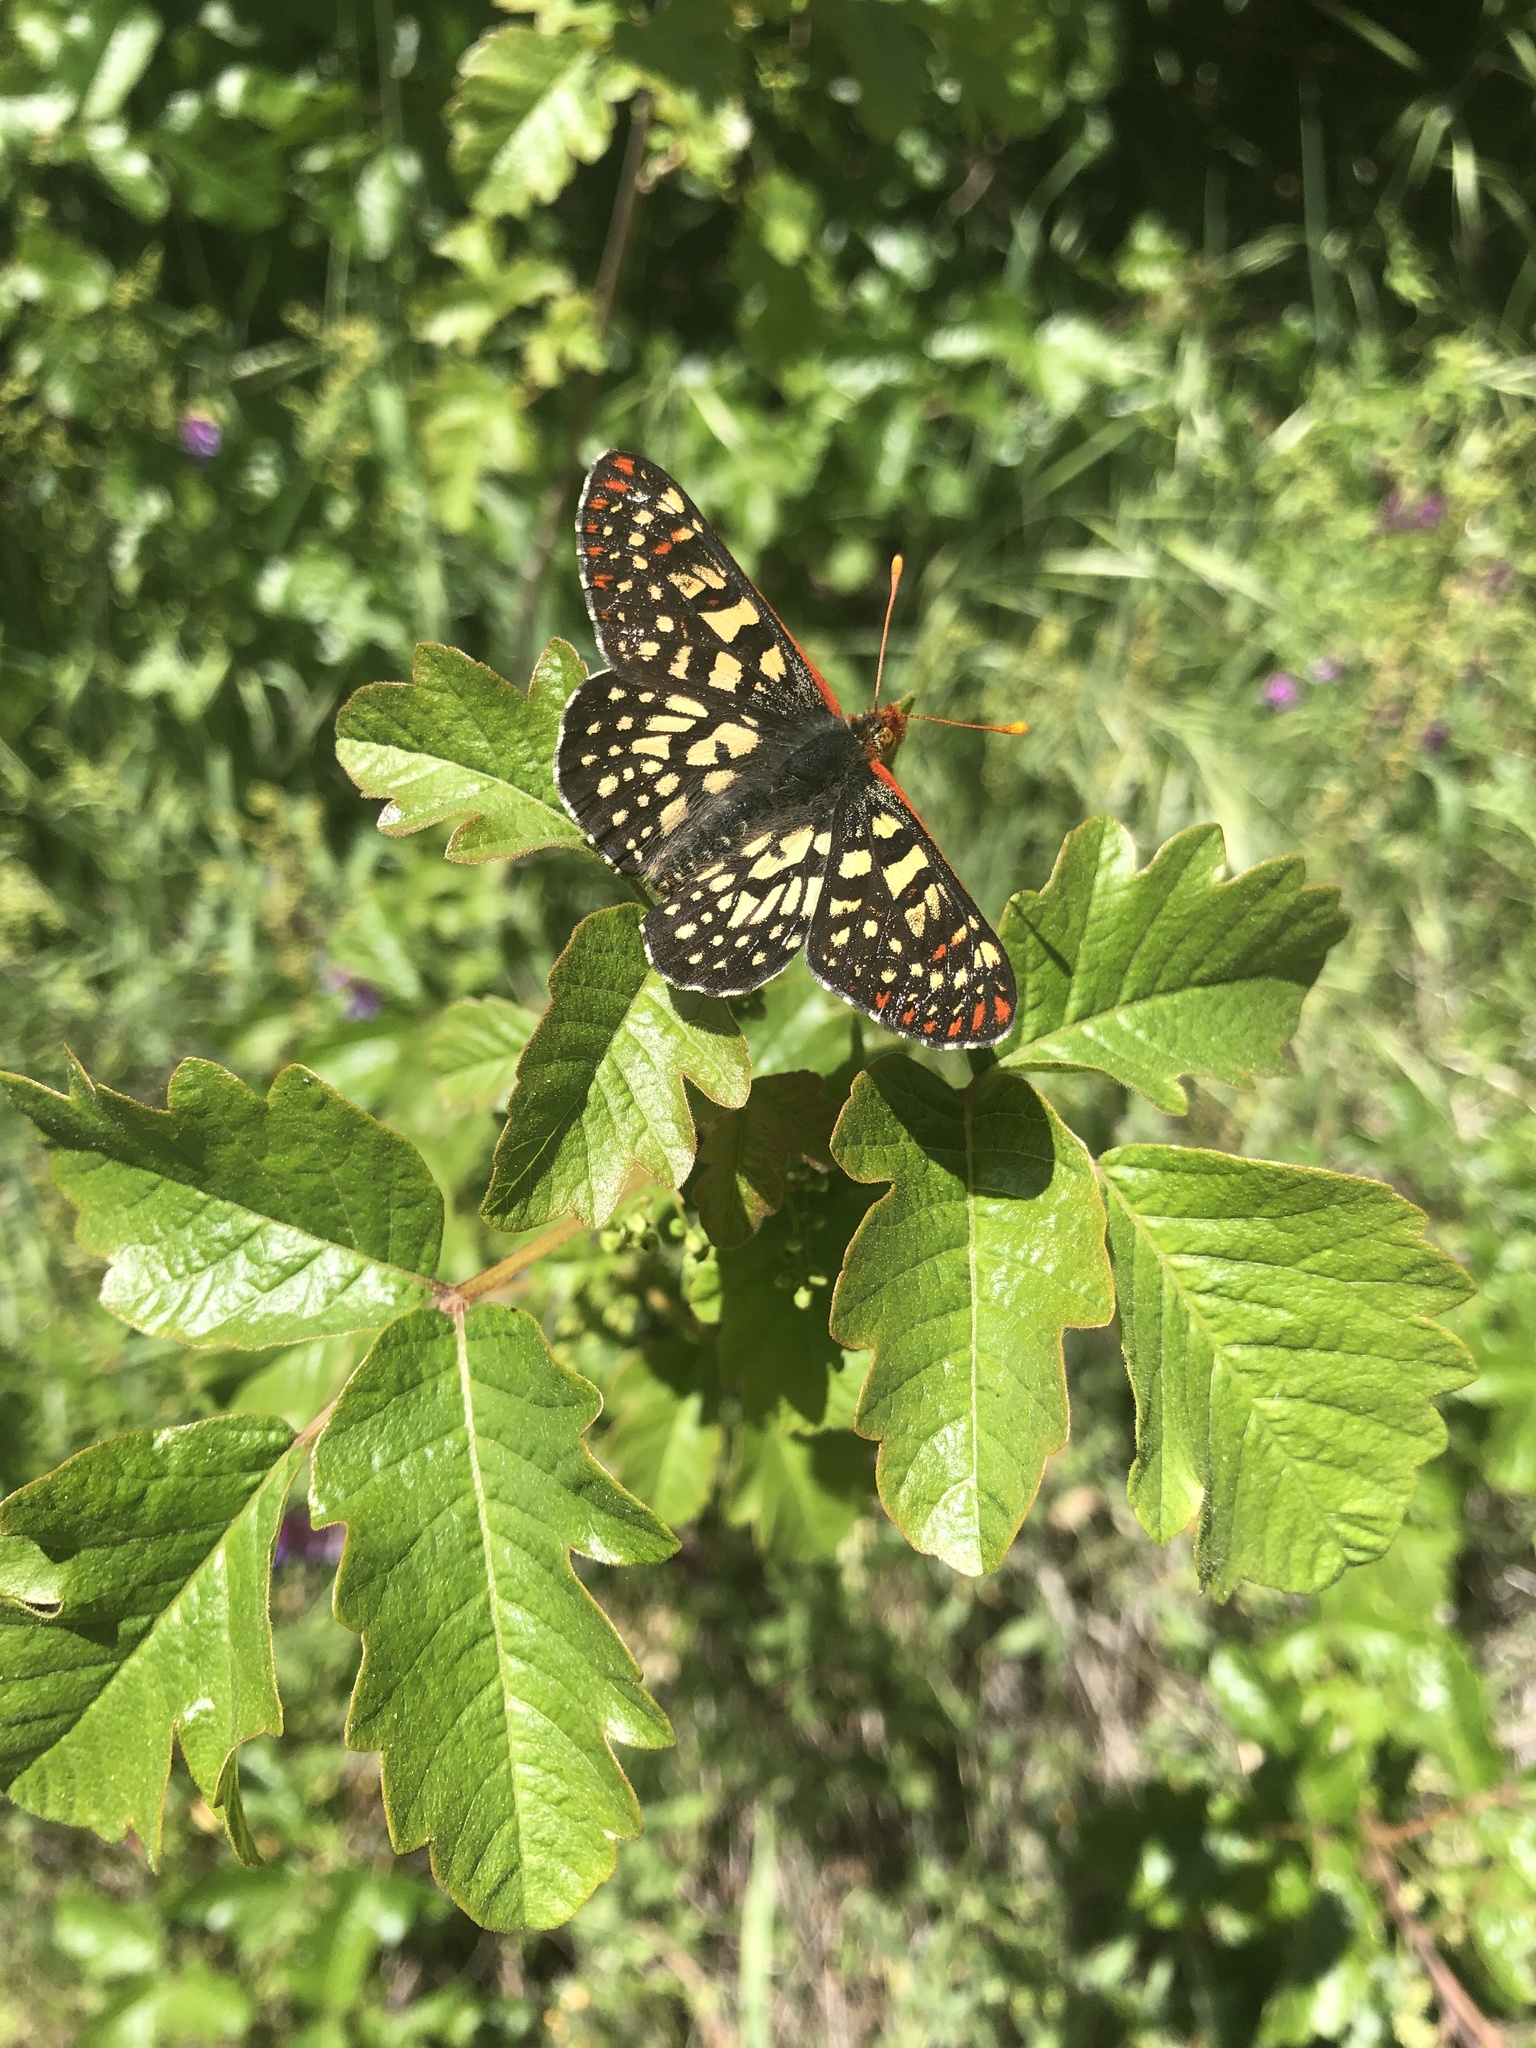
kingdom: Animalia
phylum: Arthropoda
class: Insecta
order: Lepidoptera
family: Nymphalidae
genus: Occidryas
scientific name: Occidryas chalcedona
